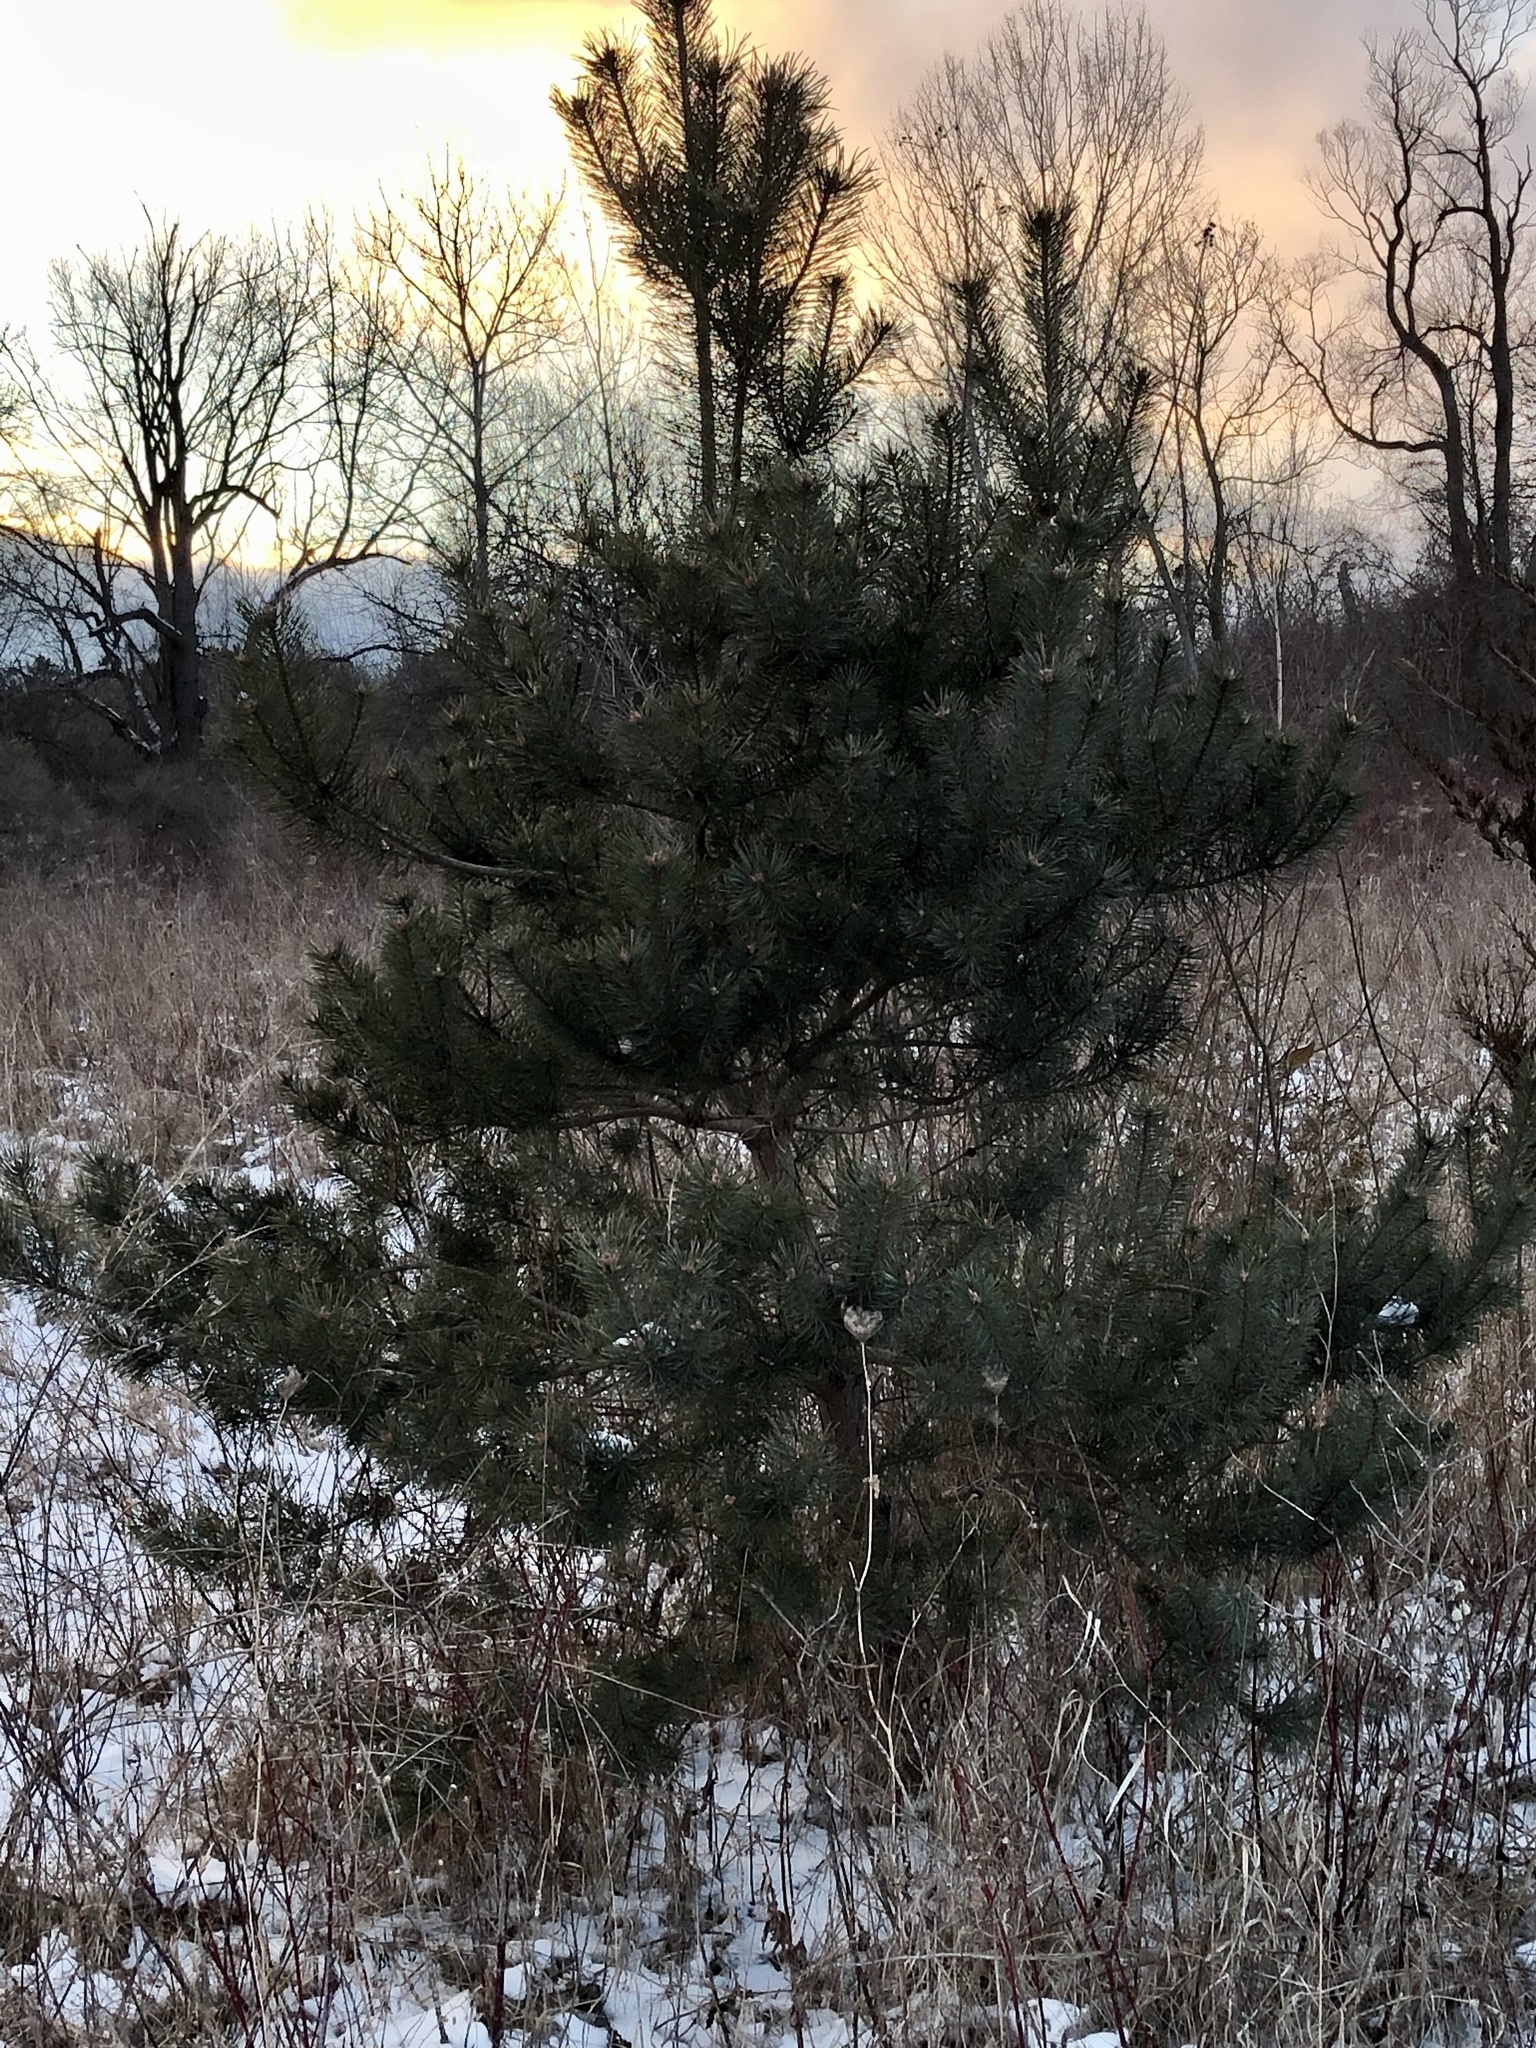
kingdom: Plantae
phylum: Tracheophyta
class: Pinopsida
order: Pinales
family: Pinaceae
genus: Pinus
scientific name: Pinus banksiana
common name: Jack pine
